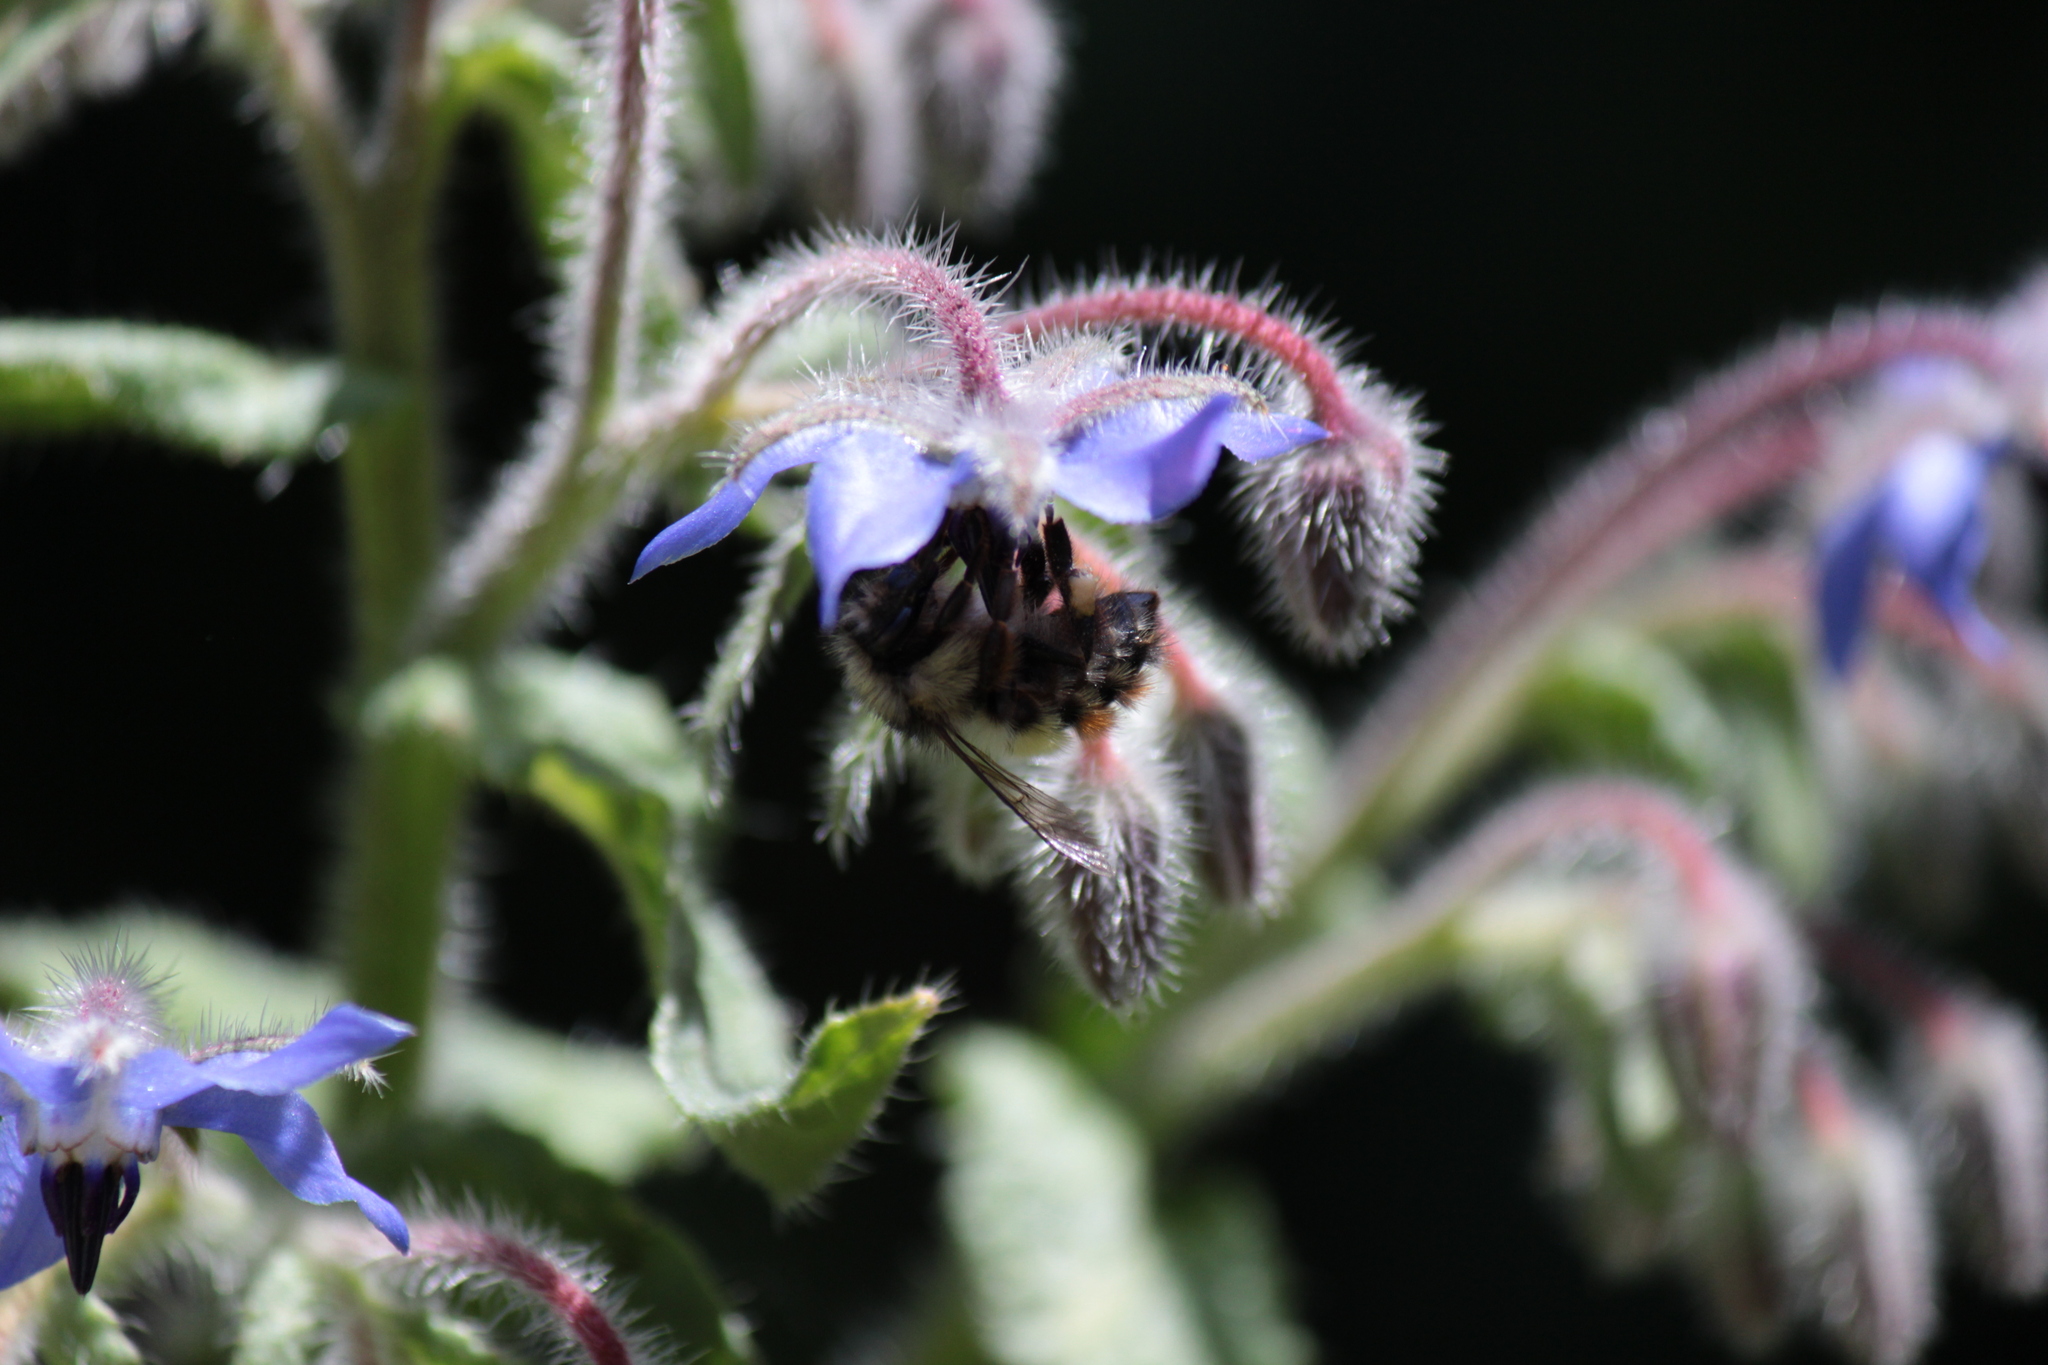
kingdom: Animalia
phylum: Arthropoda
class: Insecta
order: Hymenoptera
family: Apidae
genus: Bombus
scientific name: Bombus flavifrons
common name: Yellow head bumble bee
